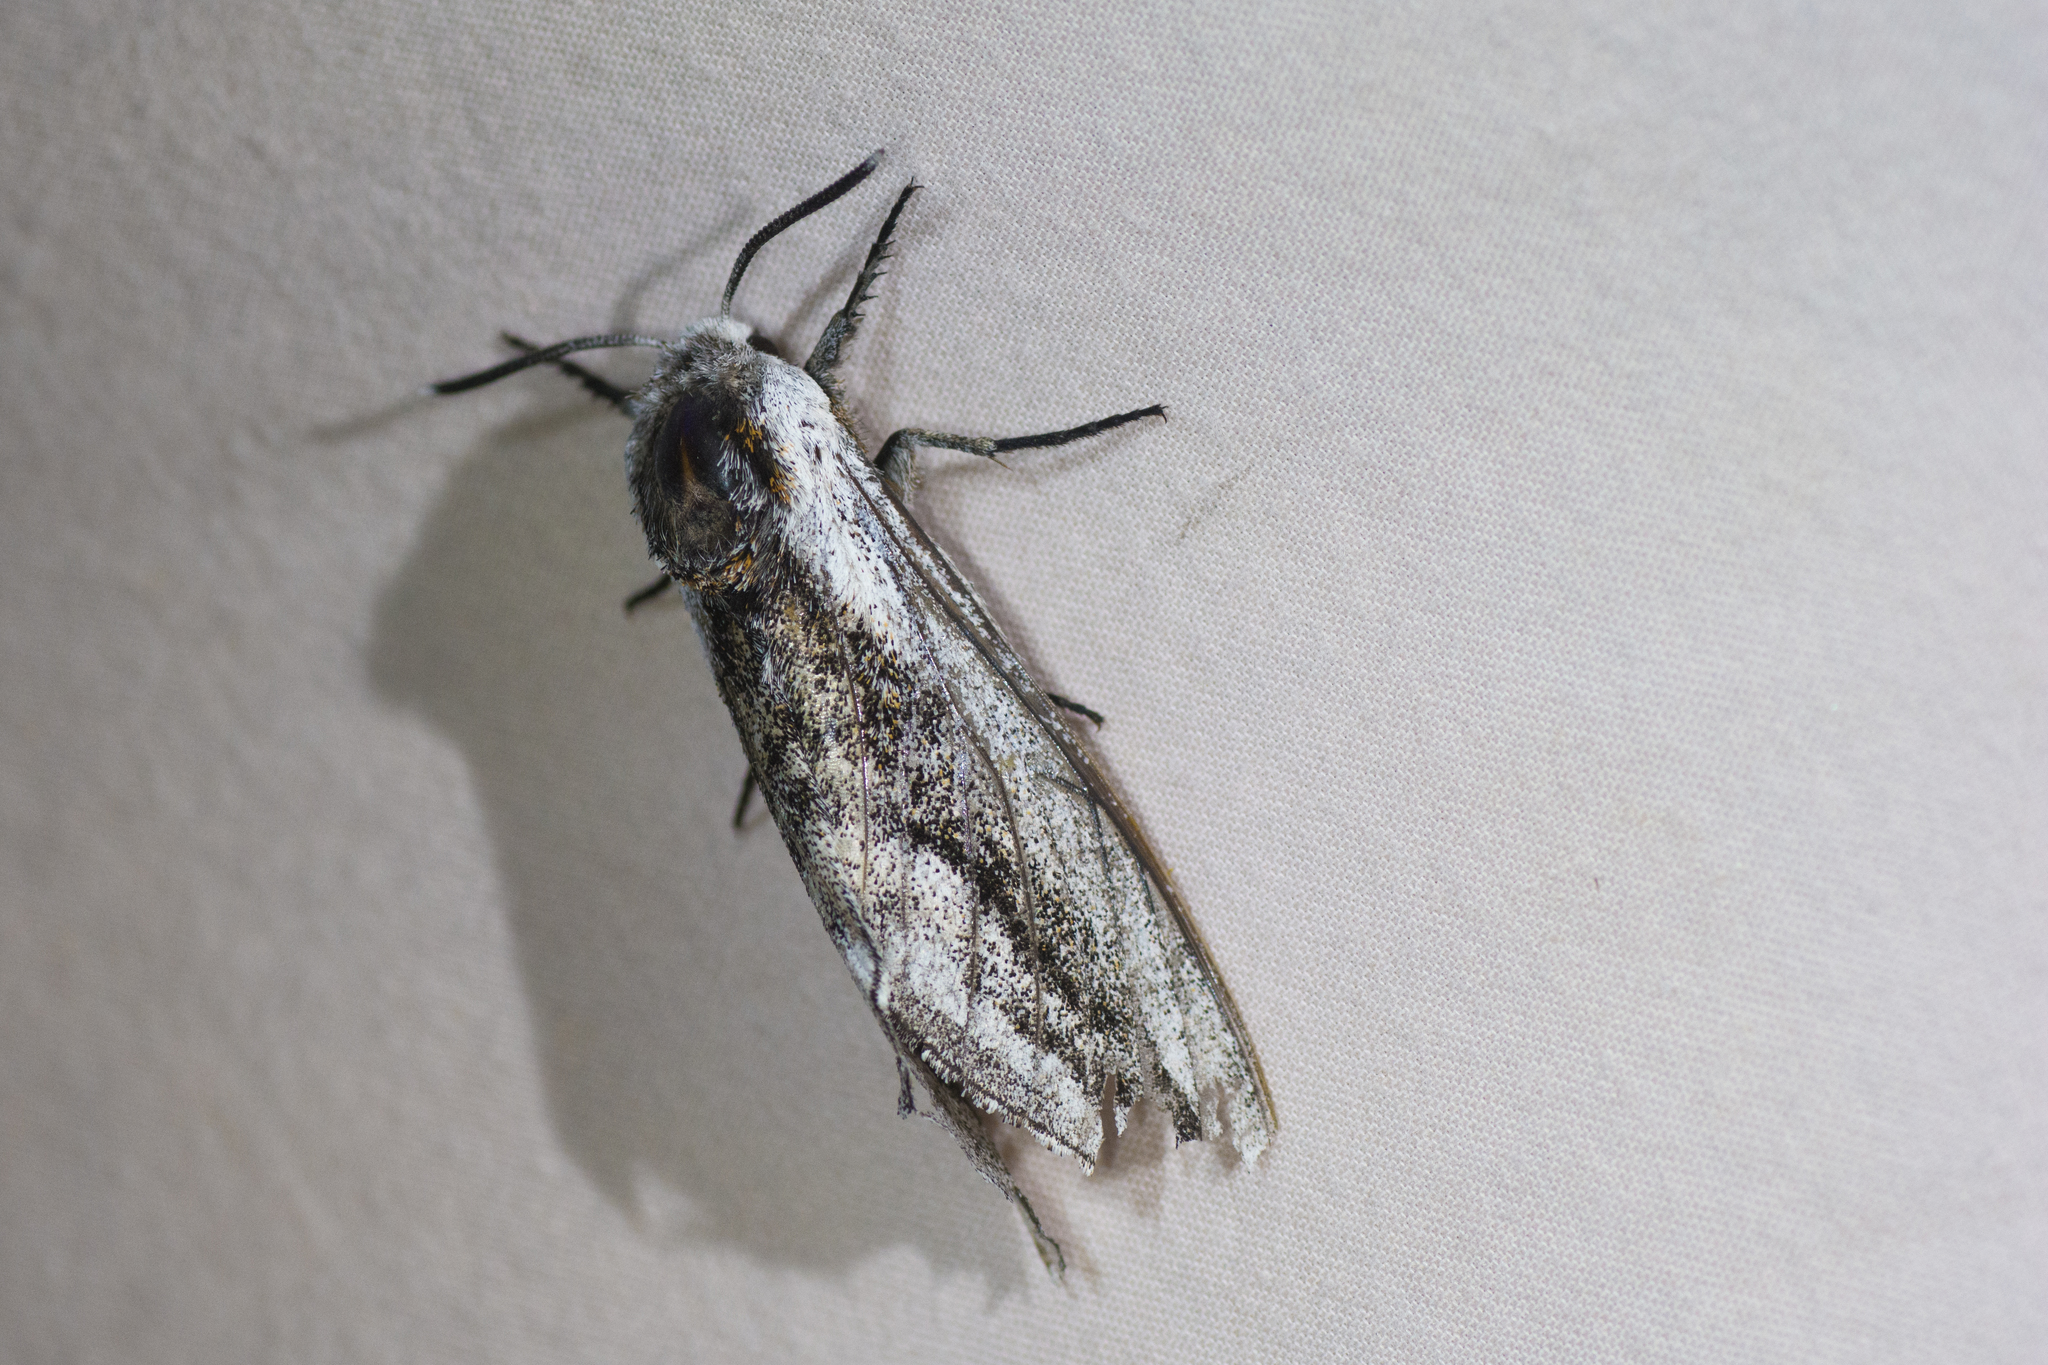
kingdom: Animalia
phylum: Arthropoda
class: Insecta
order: Lepidoptera
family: Sphingidae
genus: Sagenosoma
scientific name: Sagenosoma elsa
